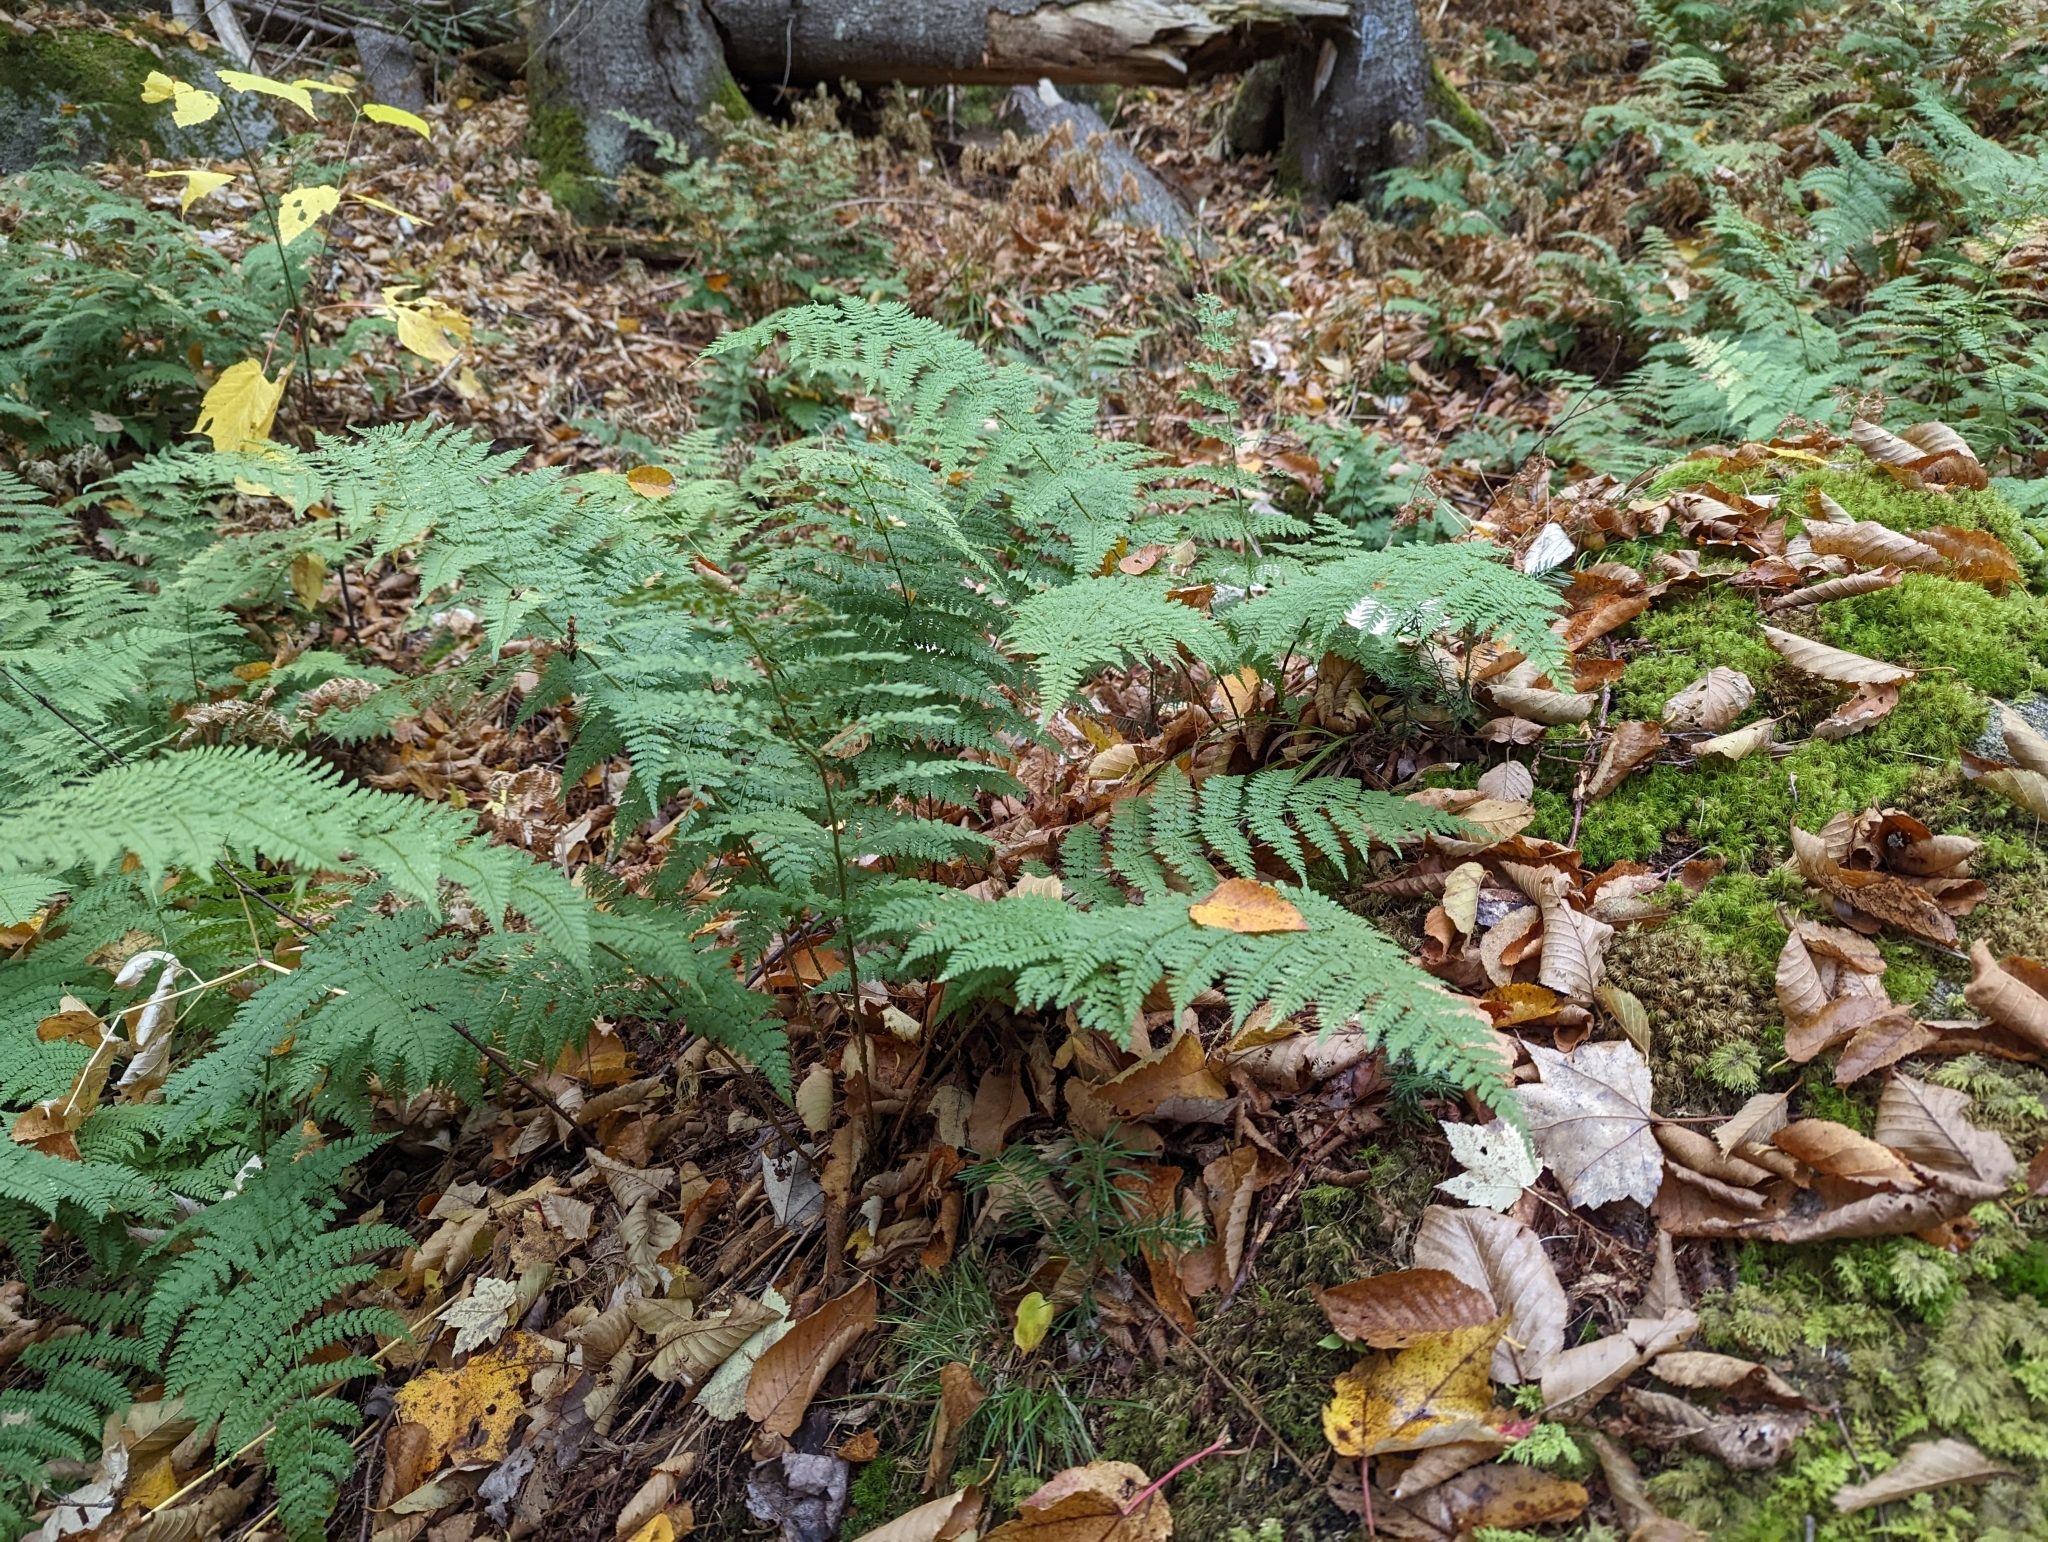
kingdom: Plantae
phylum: Tracheophyta
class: Polypodiopsida
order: Polypodiales
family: Dryopteridaceae
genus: Dryopteris
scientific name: Dryopteris intermedia
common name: Evergreen wood fern
